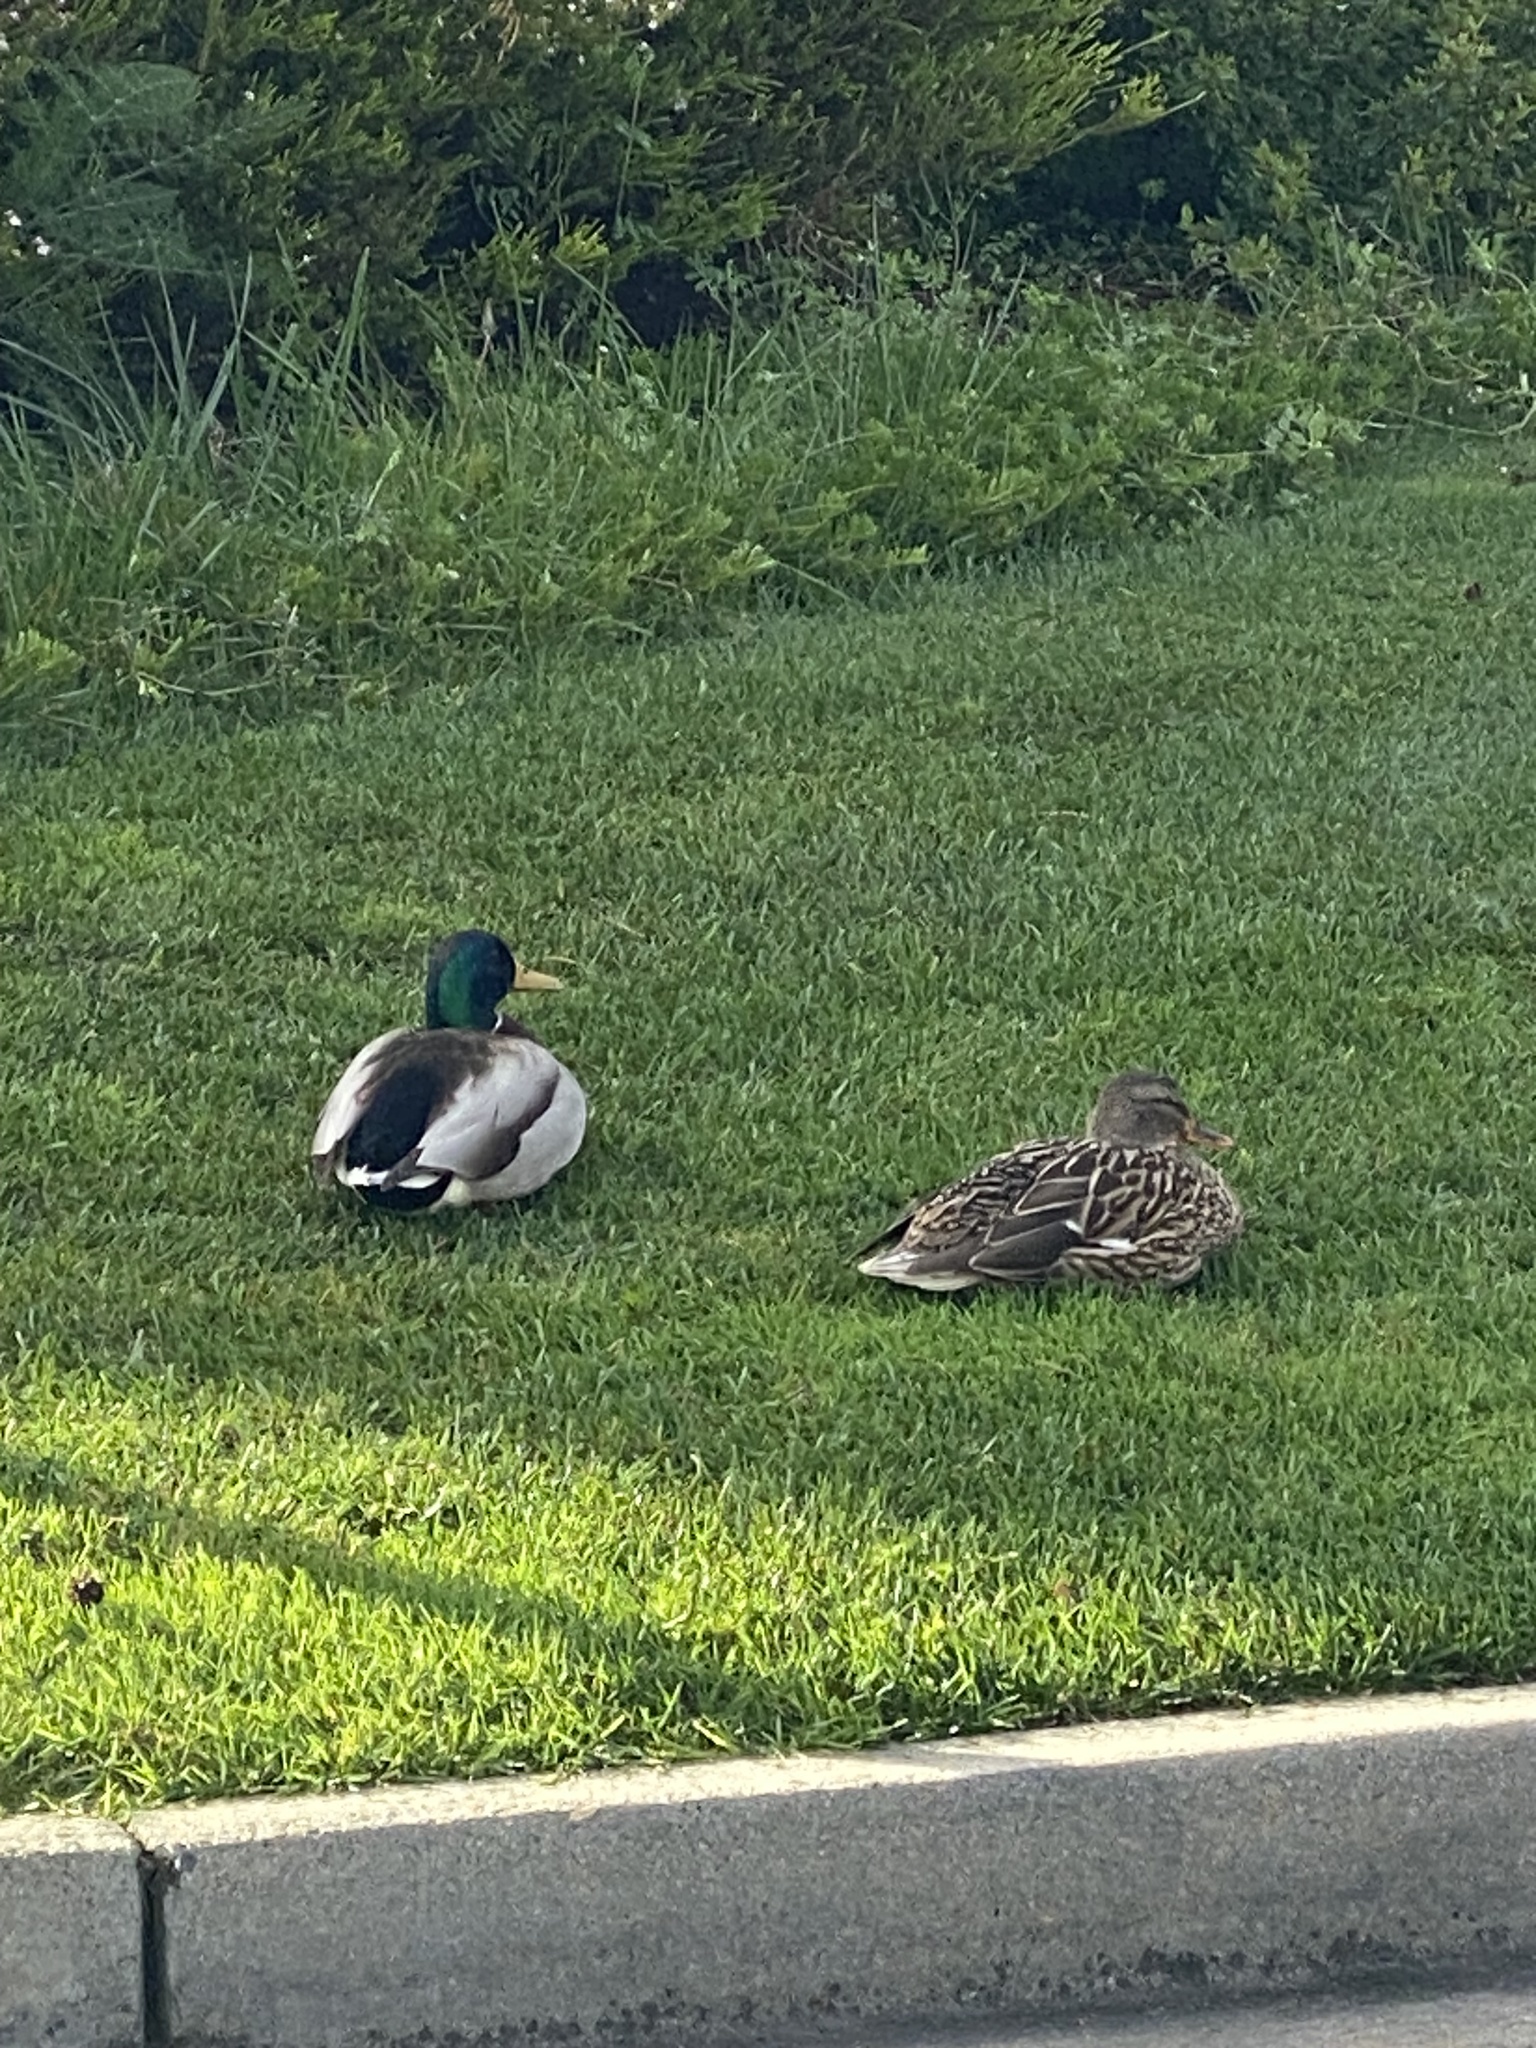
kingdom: Animalia
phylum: Chordata
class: Aves
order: Anseriformes
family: Anatidae
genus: Anas
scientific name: Anas platyrhynchos
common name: Mallard
